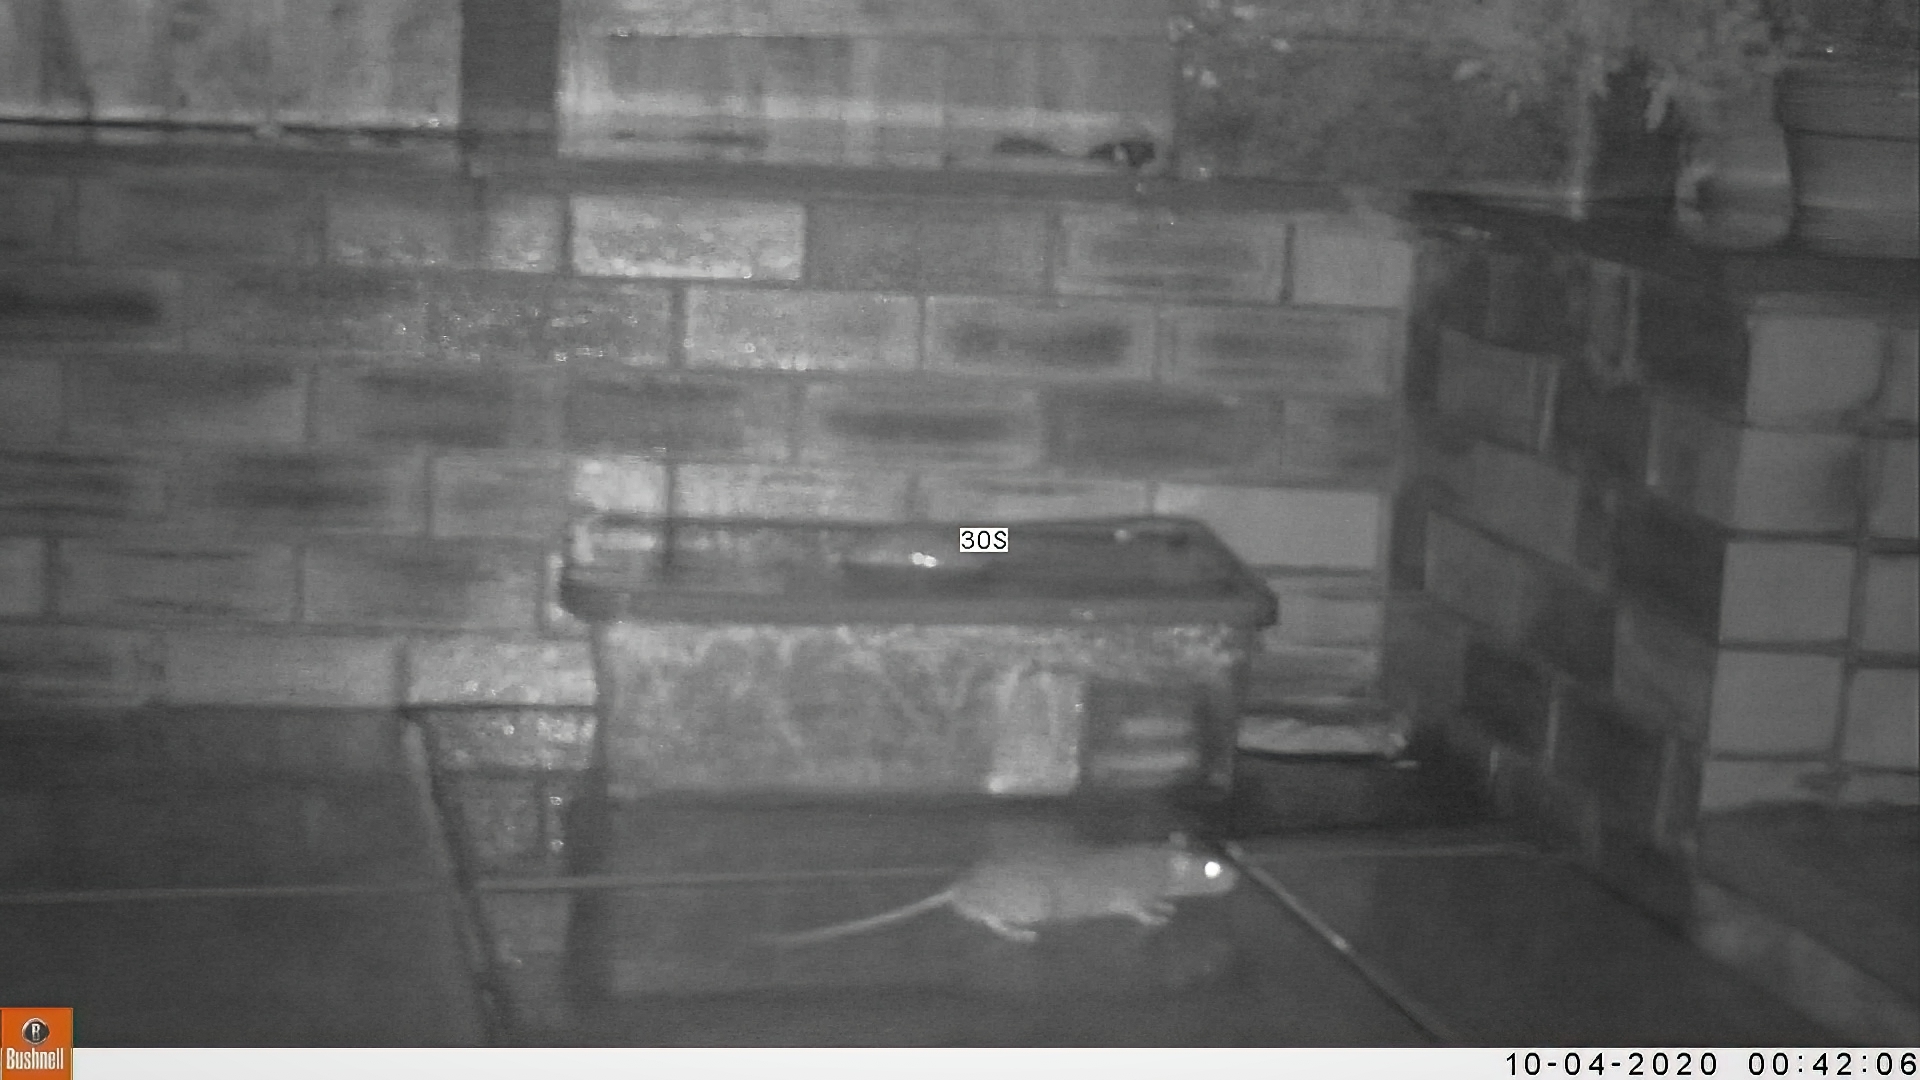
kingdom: Animalia
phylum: Chordata
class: Mammalia
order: Rodentia
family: Muridae
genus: Rattus
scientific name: Rattus norvegicus
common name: Brown rat
